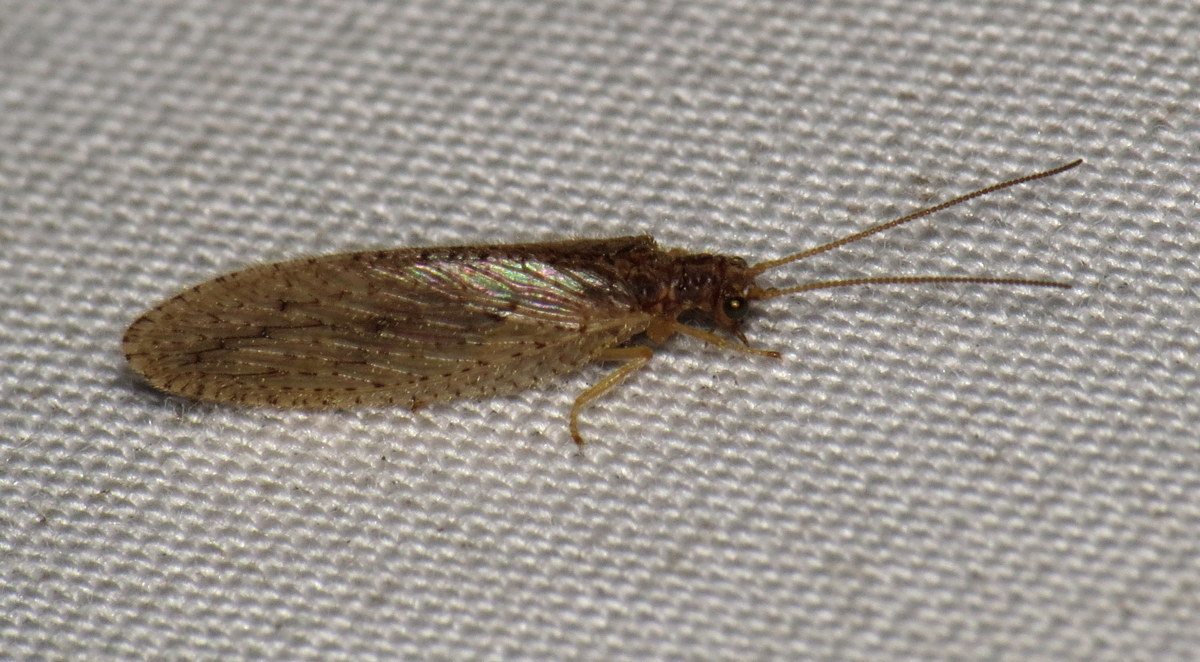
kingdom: Animalia
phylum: Arthropoda
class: Insecta
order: Neuroptera
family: Hemerobiidae
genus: Micromus
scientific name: Micromus subanticus
